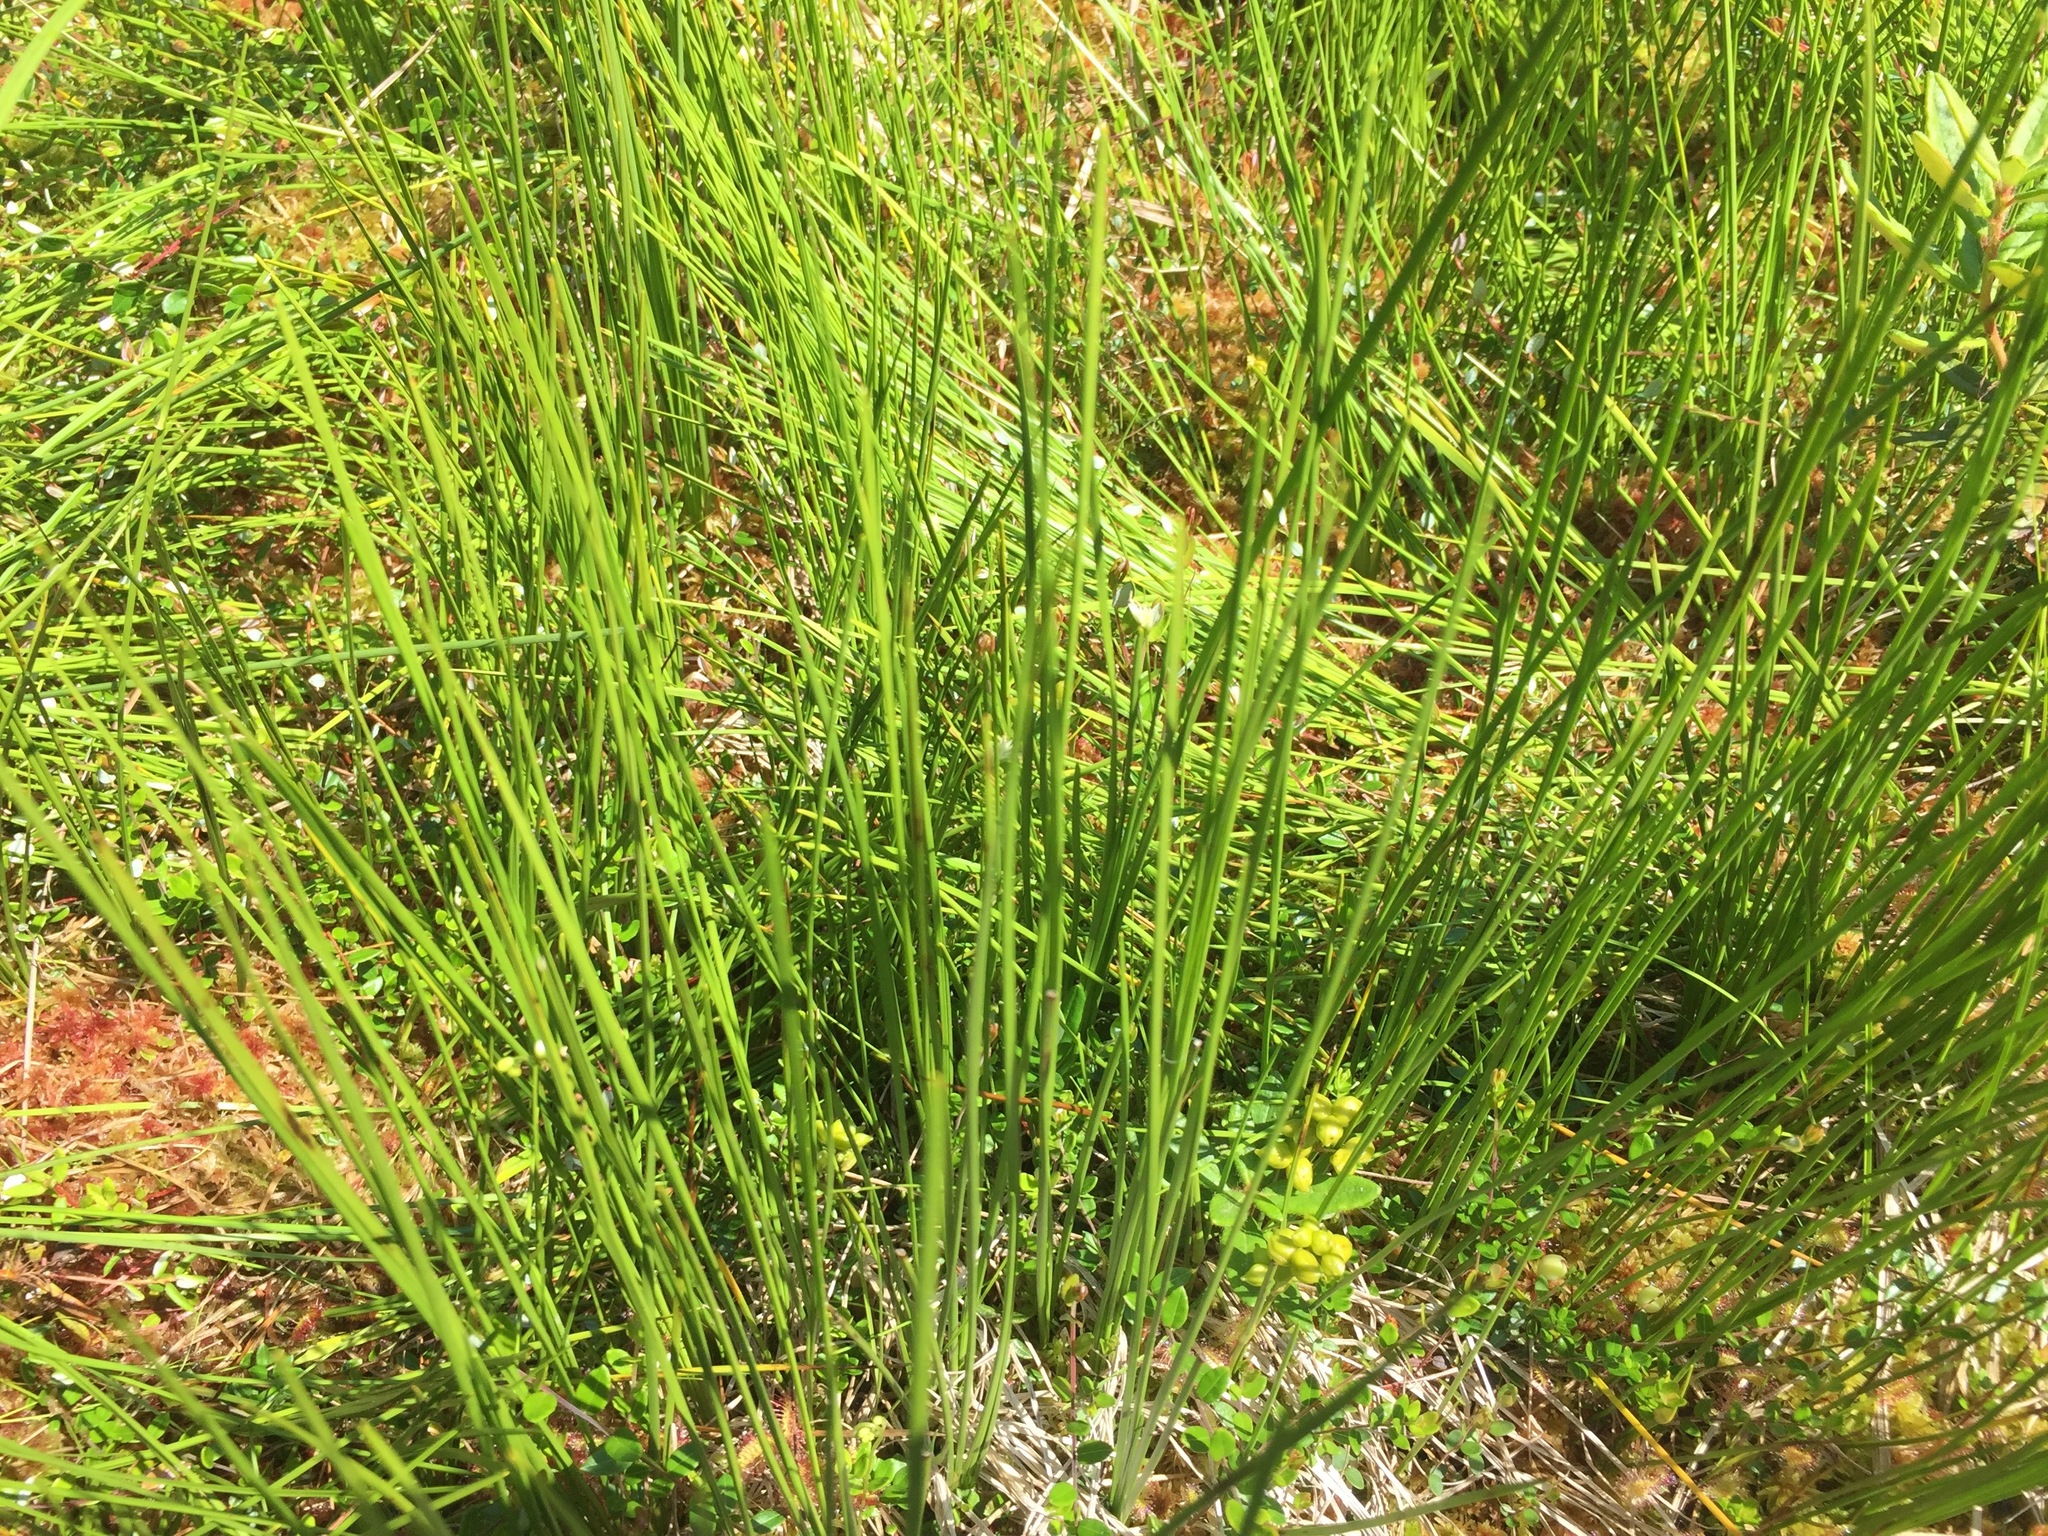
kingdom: Plantae
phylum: Tracheophyta
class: Liliopsida
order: Alismatales
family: Scheuchzeriaceae
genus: Scheuchzeria
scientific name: Scheuchzeria palustris
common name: Rannoch-rush
